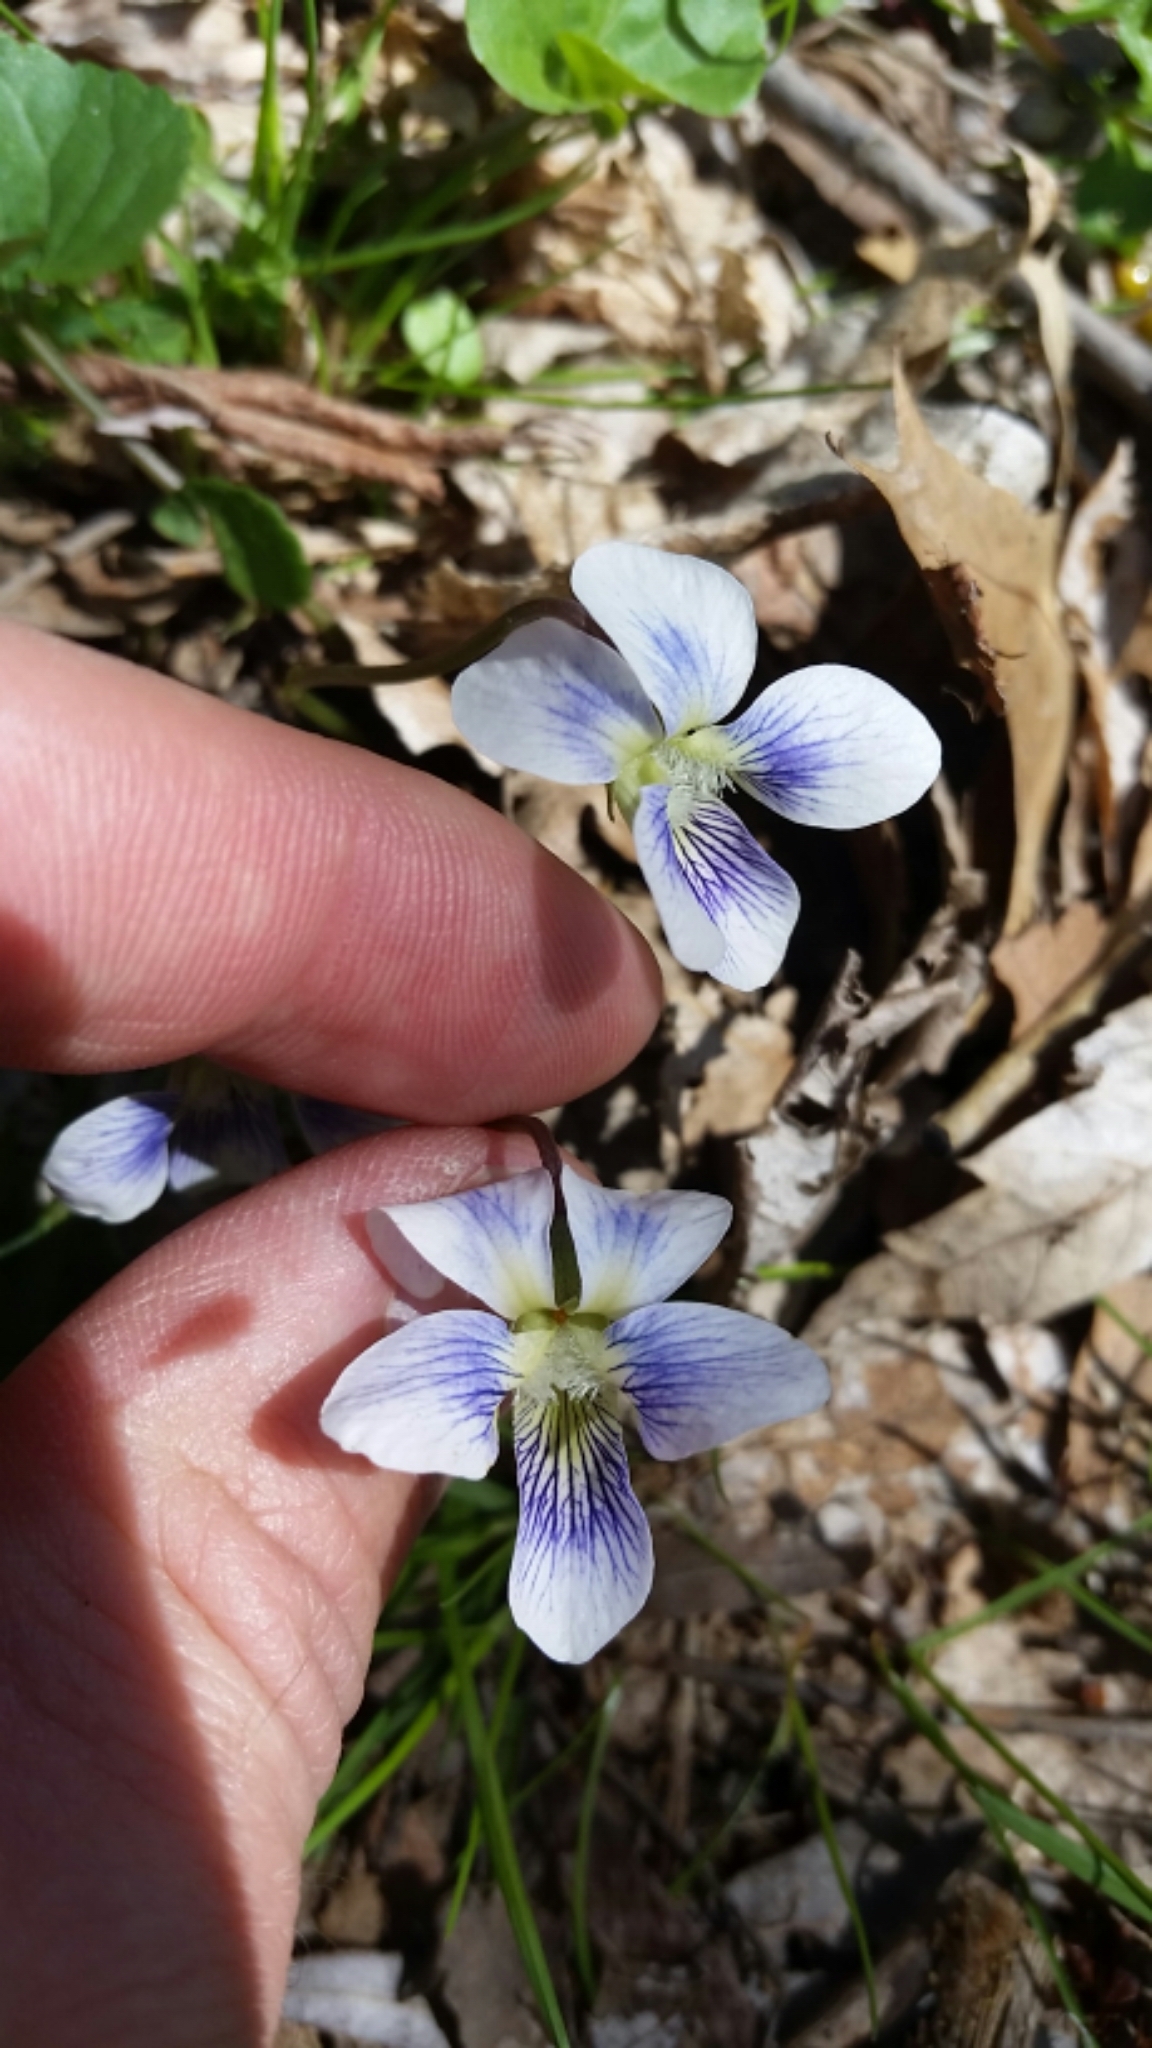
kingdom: Plantae
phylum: Tracheophyta
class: Magnoliopsida
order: Malpighiales
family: Violaceae
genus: Viola
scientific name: Viola sororia
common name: Dooryard violet
